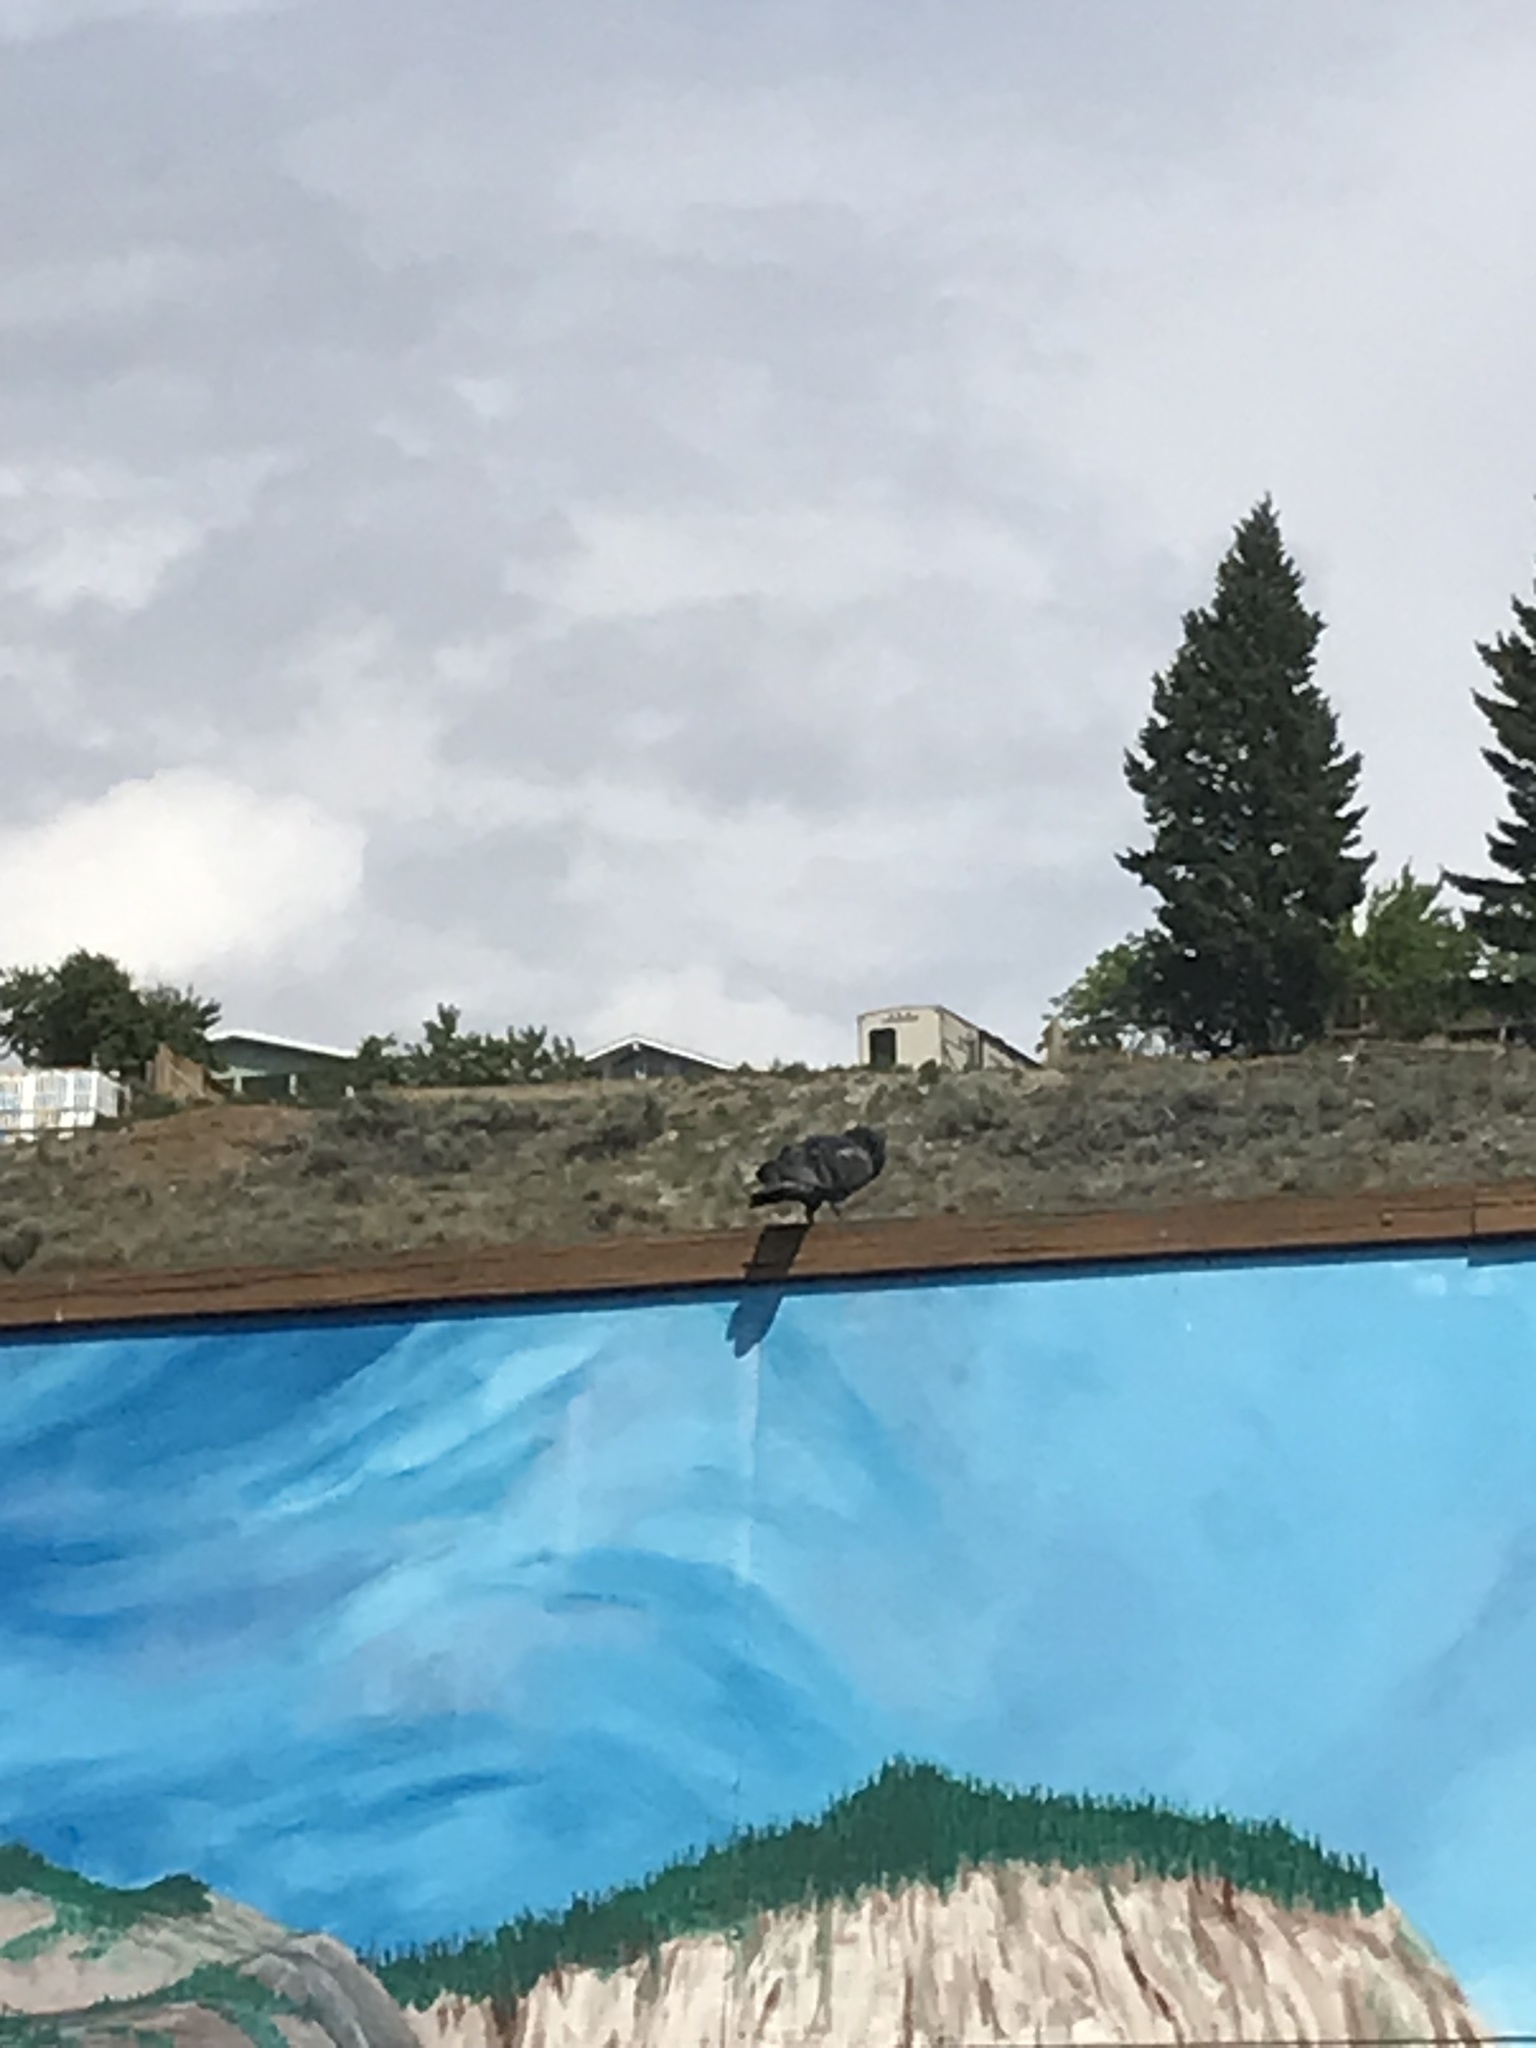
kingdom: Animalia
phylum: Chordata
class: Aves
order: Columbiformes
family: Columbidae
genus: Columba
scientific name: Columba livia
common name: Rock pigeon
